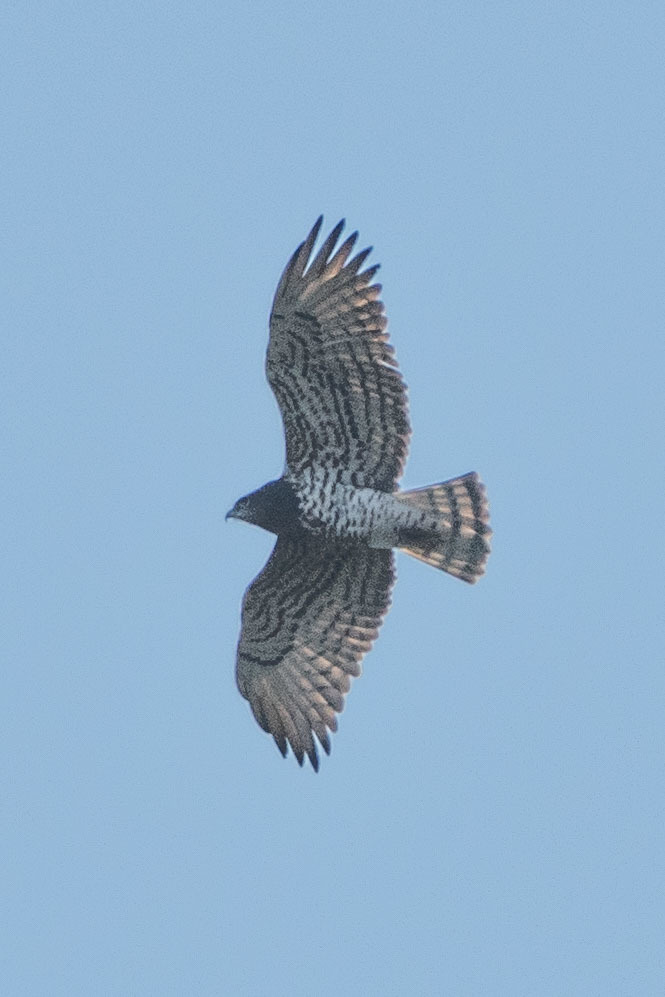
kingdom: Animalia
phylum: Chordata
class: Aves
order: Accipitriformes
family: Accipitridae
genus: Circaetus
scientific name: Circaetus gallicus
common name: Short-toed snake eagle
